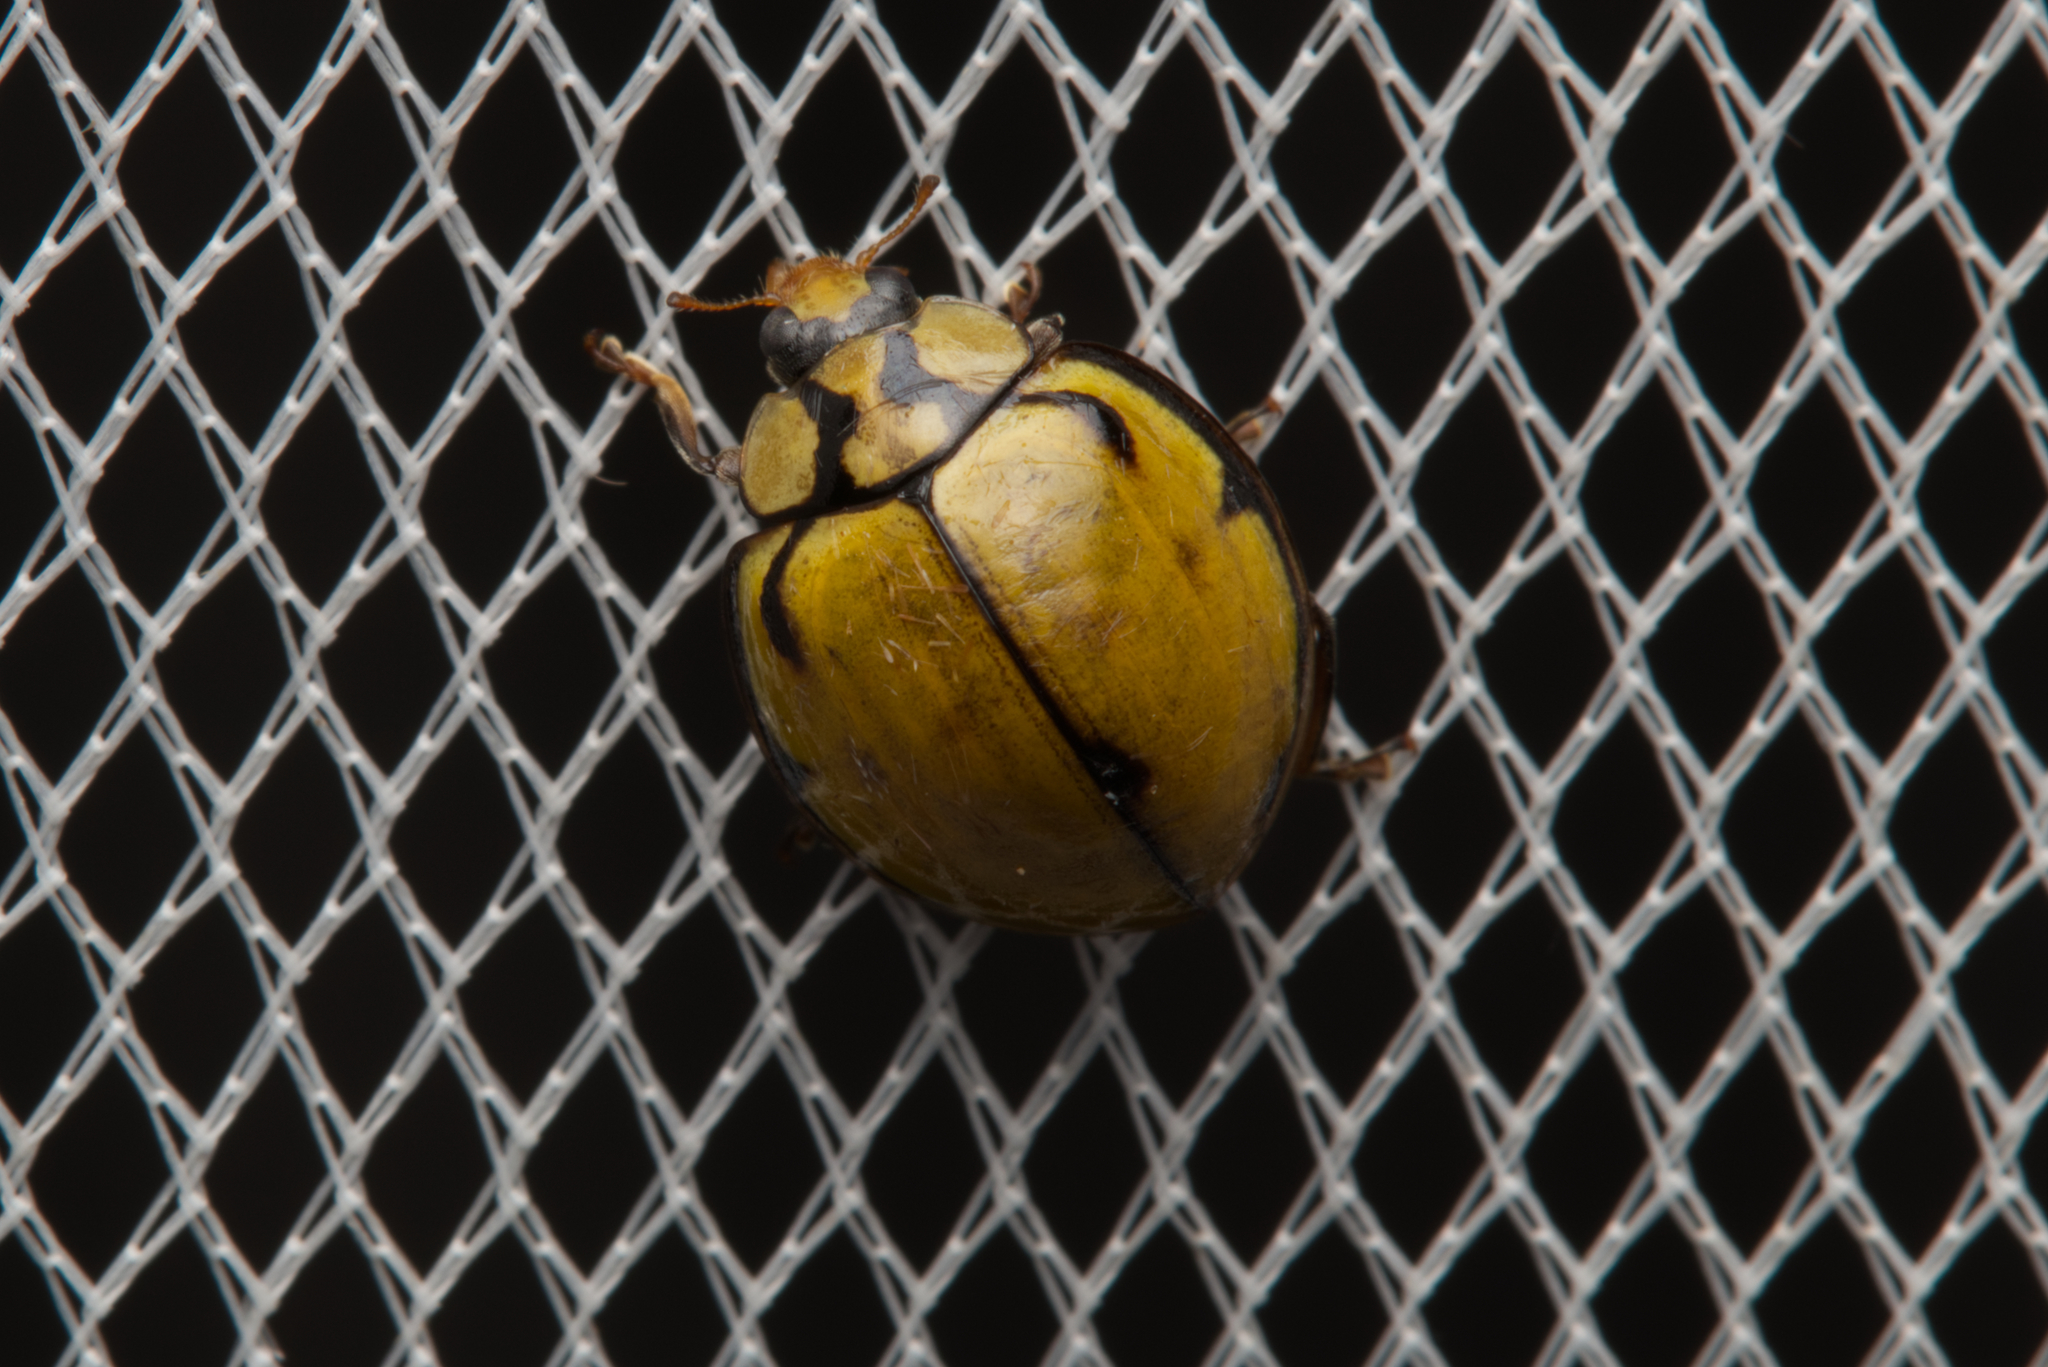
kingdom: Animalia
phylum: Arthropoda
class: Insecta
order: Coleoptera
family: Coccinellidae
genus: Harmonia
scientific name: Harmonia
